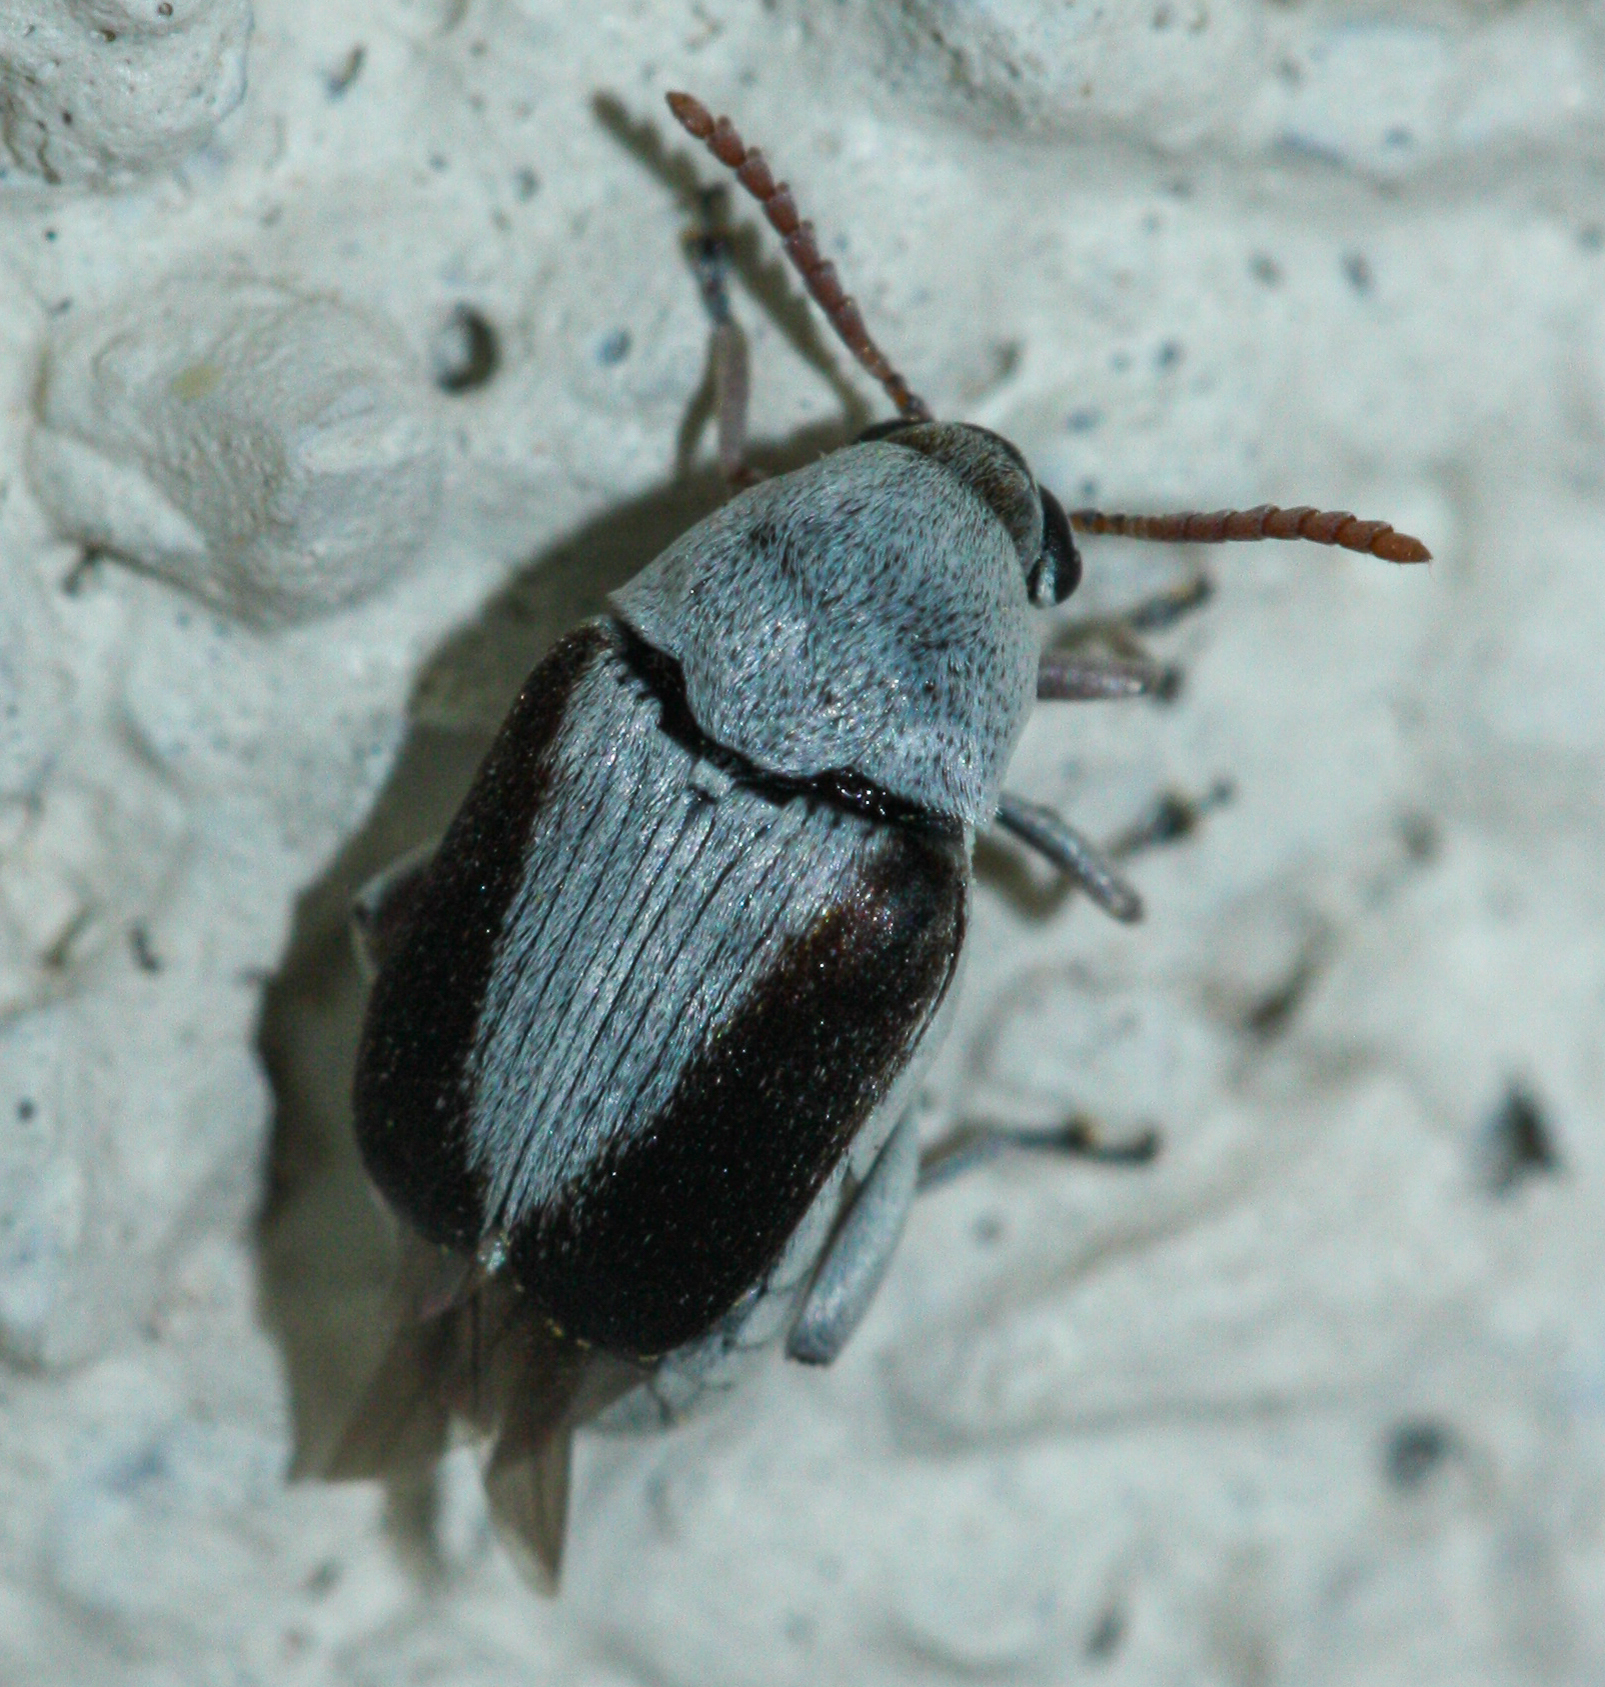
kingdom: Animalia
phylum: Arthropoda
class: Insecta
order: Coleoptera
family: Chrysomelidae
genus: Mimosestes
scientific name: Mimosestes ulkei
